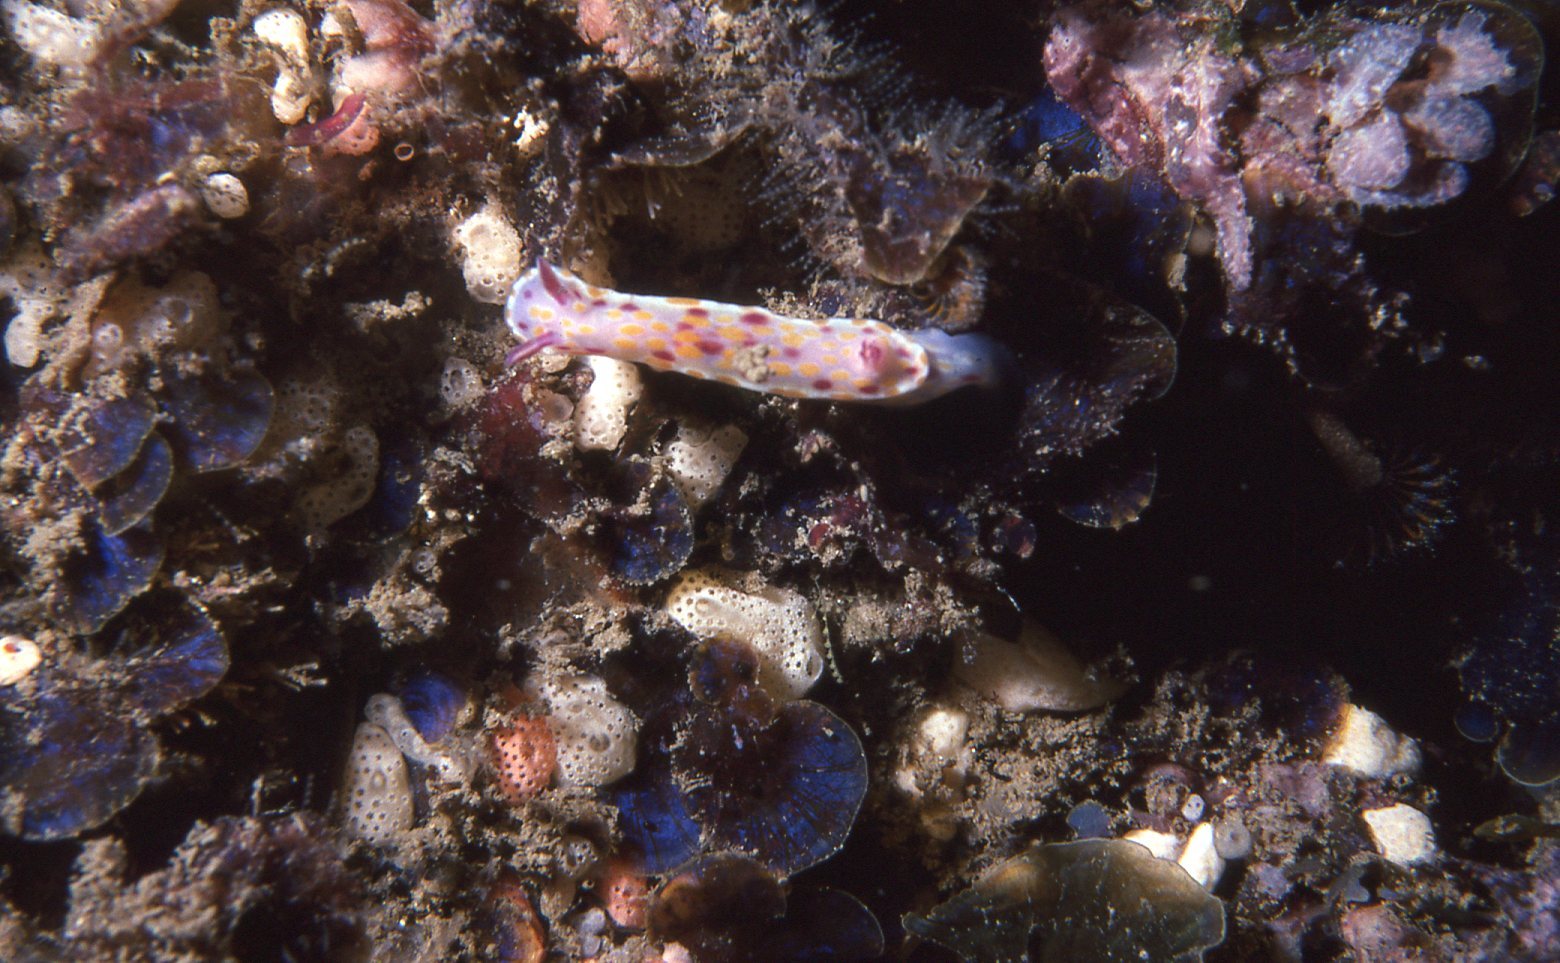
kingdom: Animalia
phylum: Mollusca
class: Gastropoda
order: Nudibranchia
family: Chromodorididae
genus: Ceratosoma
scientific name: Ceratosoma amoenum
